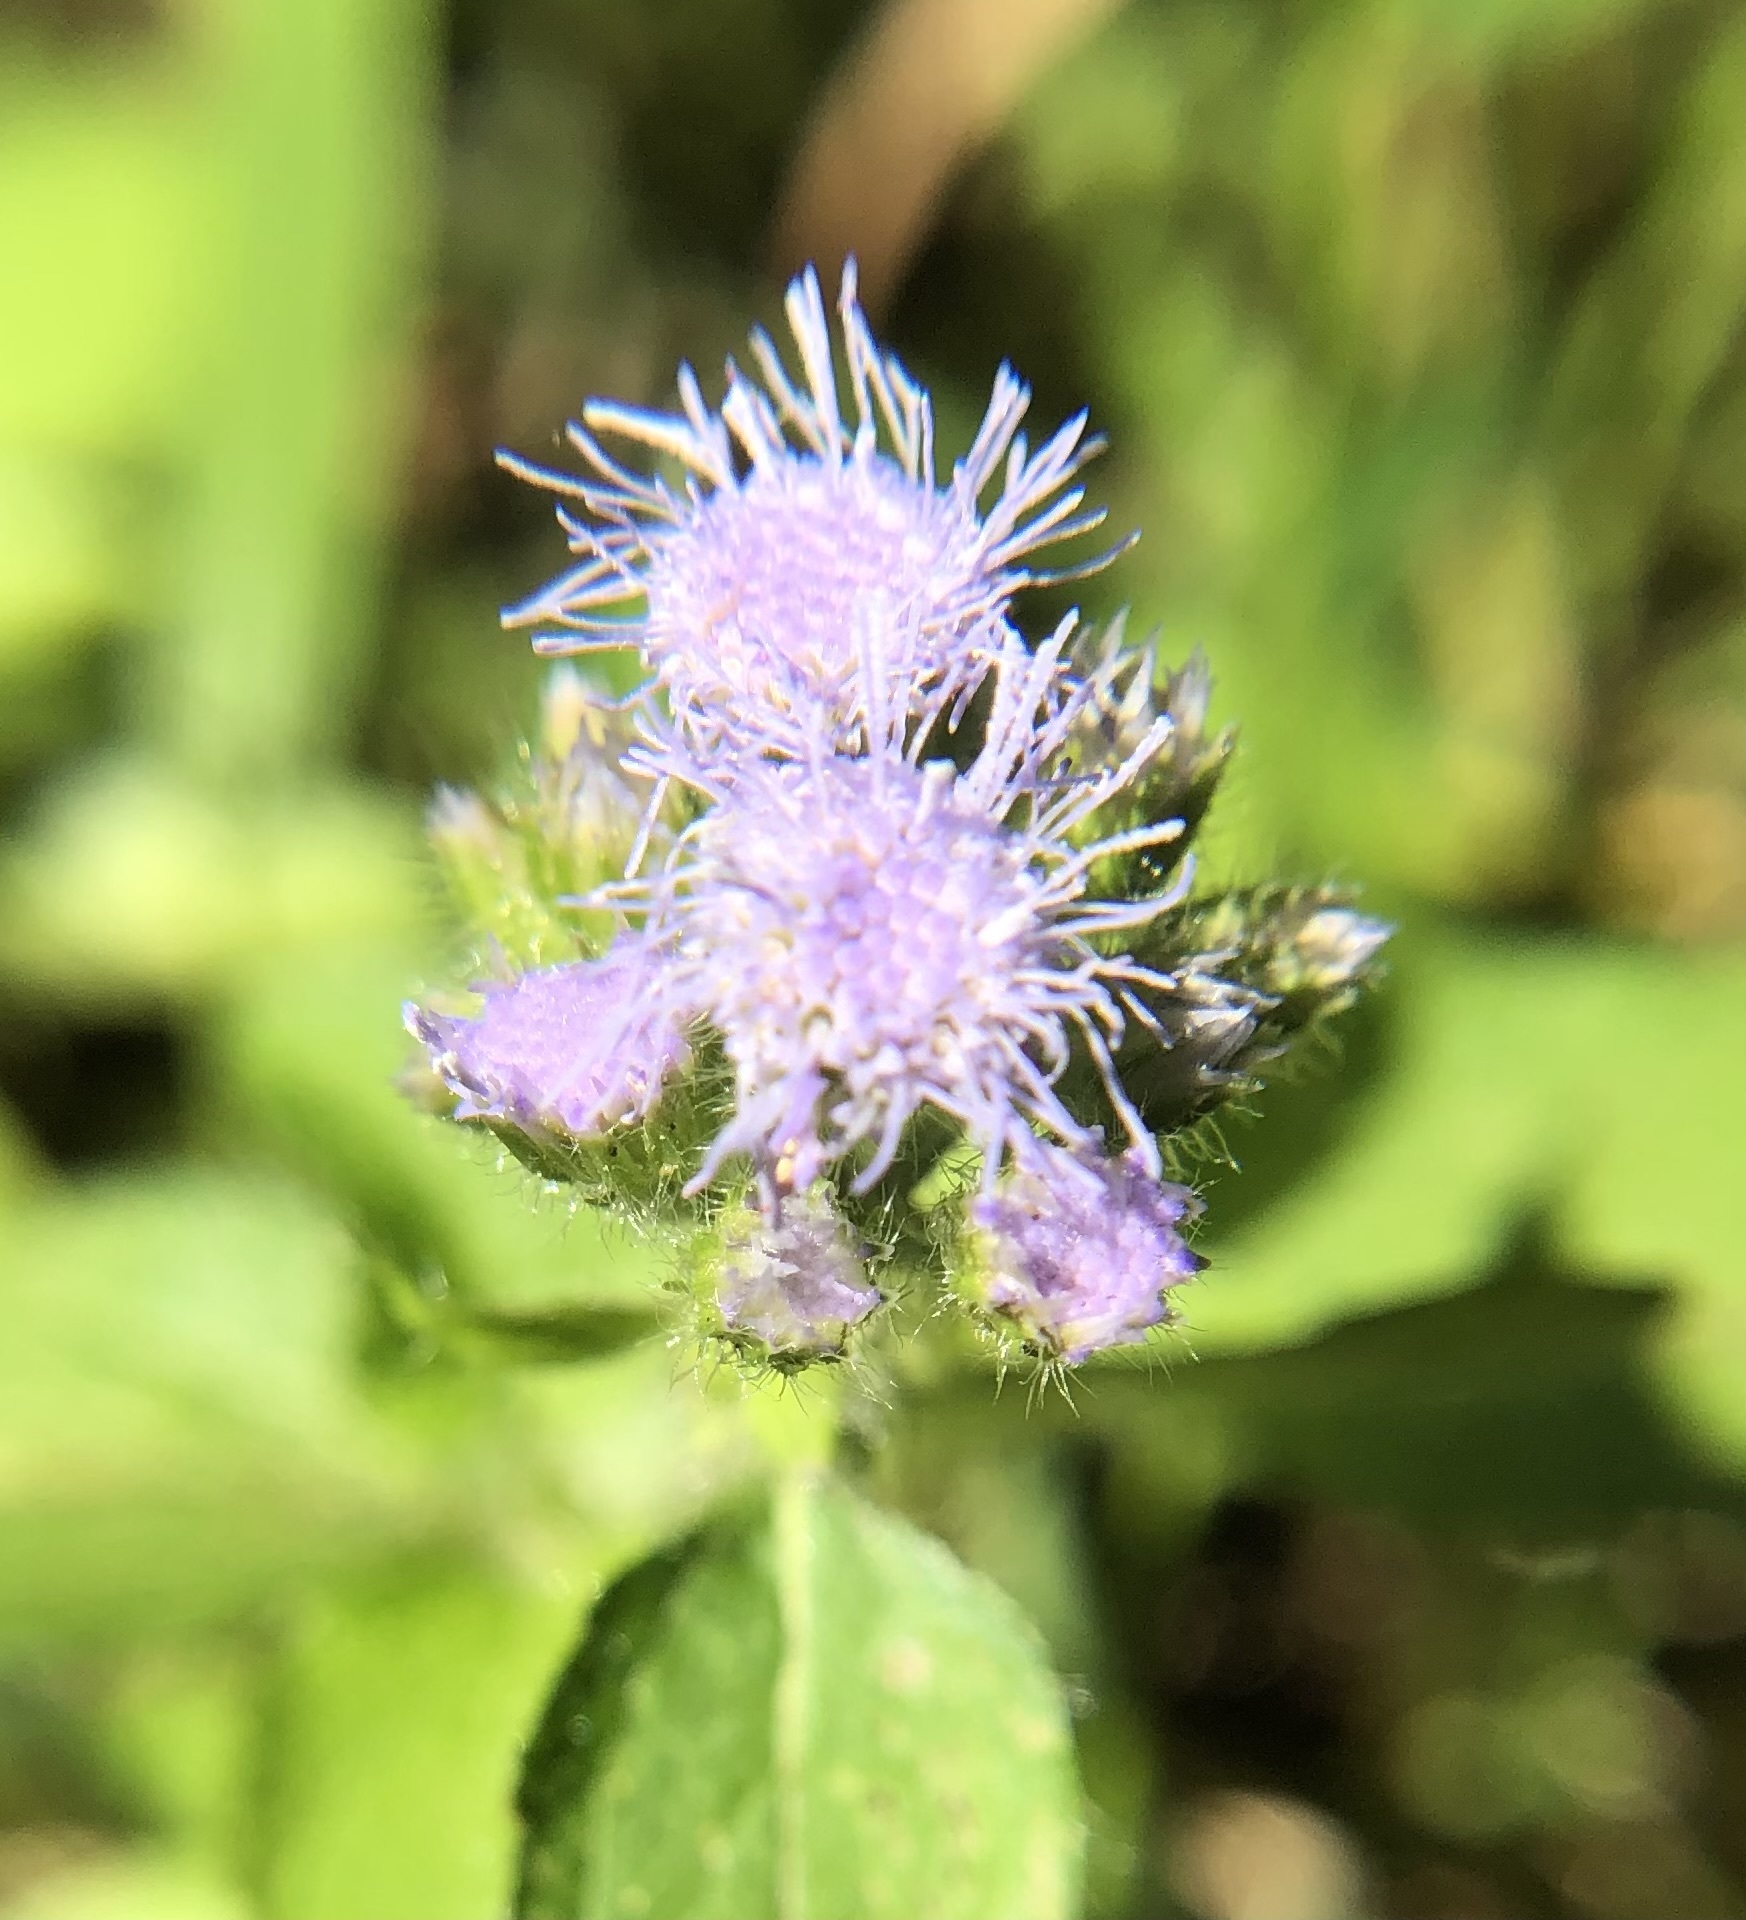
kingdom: Plantae
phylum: Tracheophyta
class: Magnoliopsida
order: Asterales
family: Asteraceae
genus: Ageratum
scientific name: Ageratum houstonianum
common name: Bluemink
